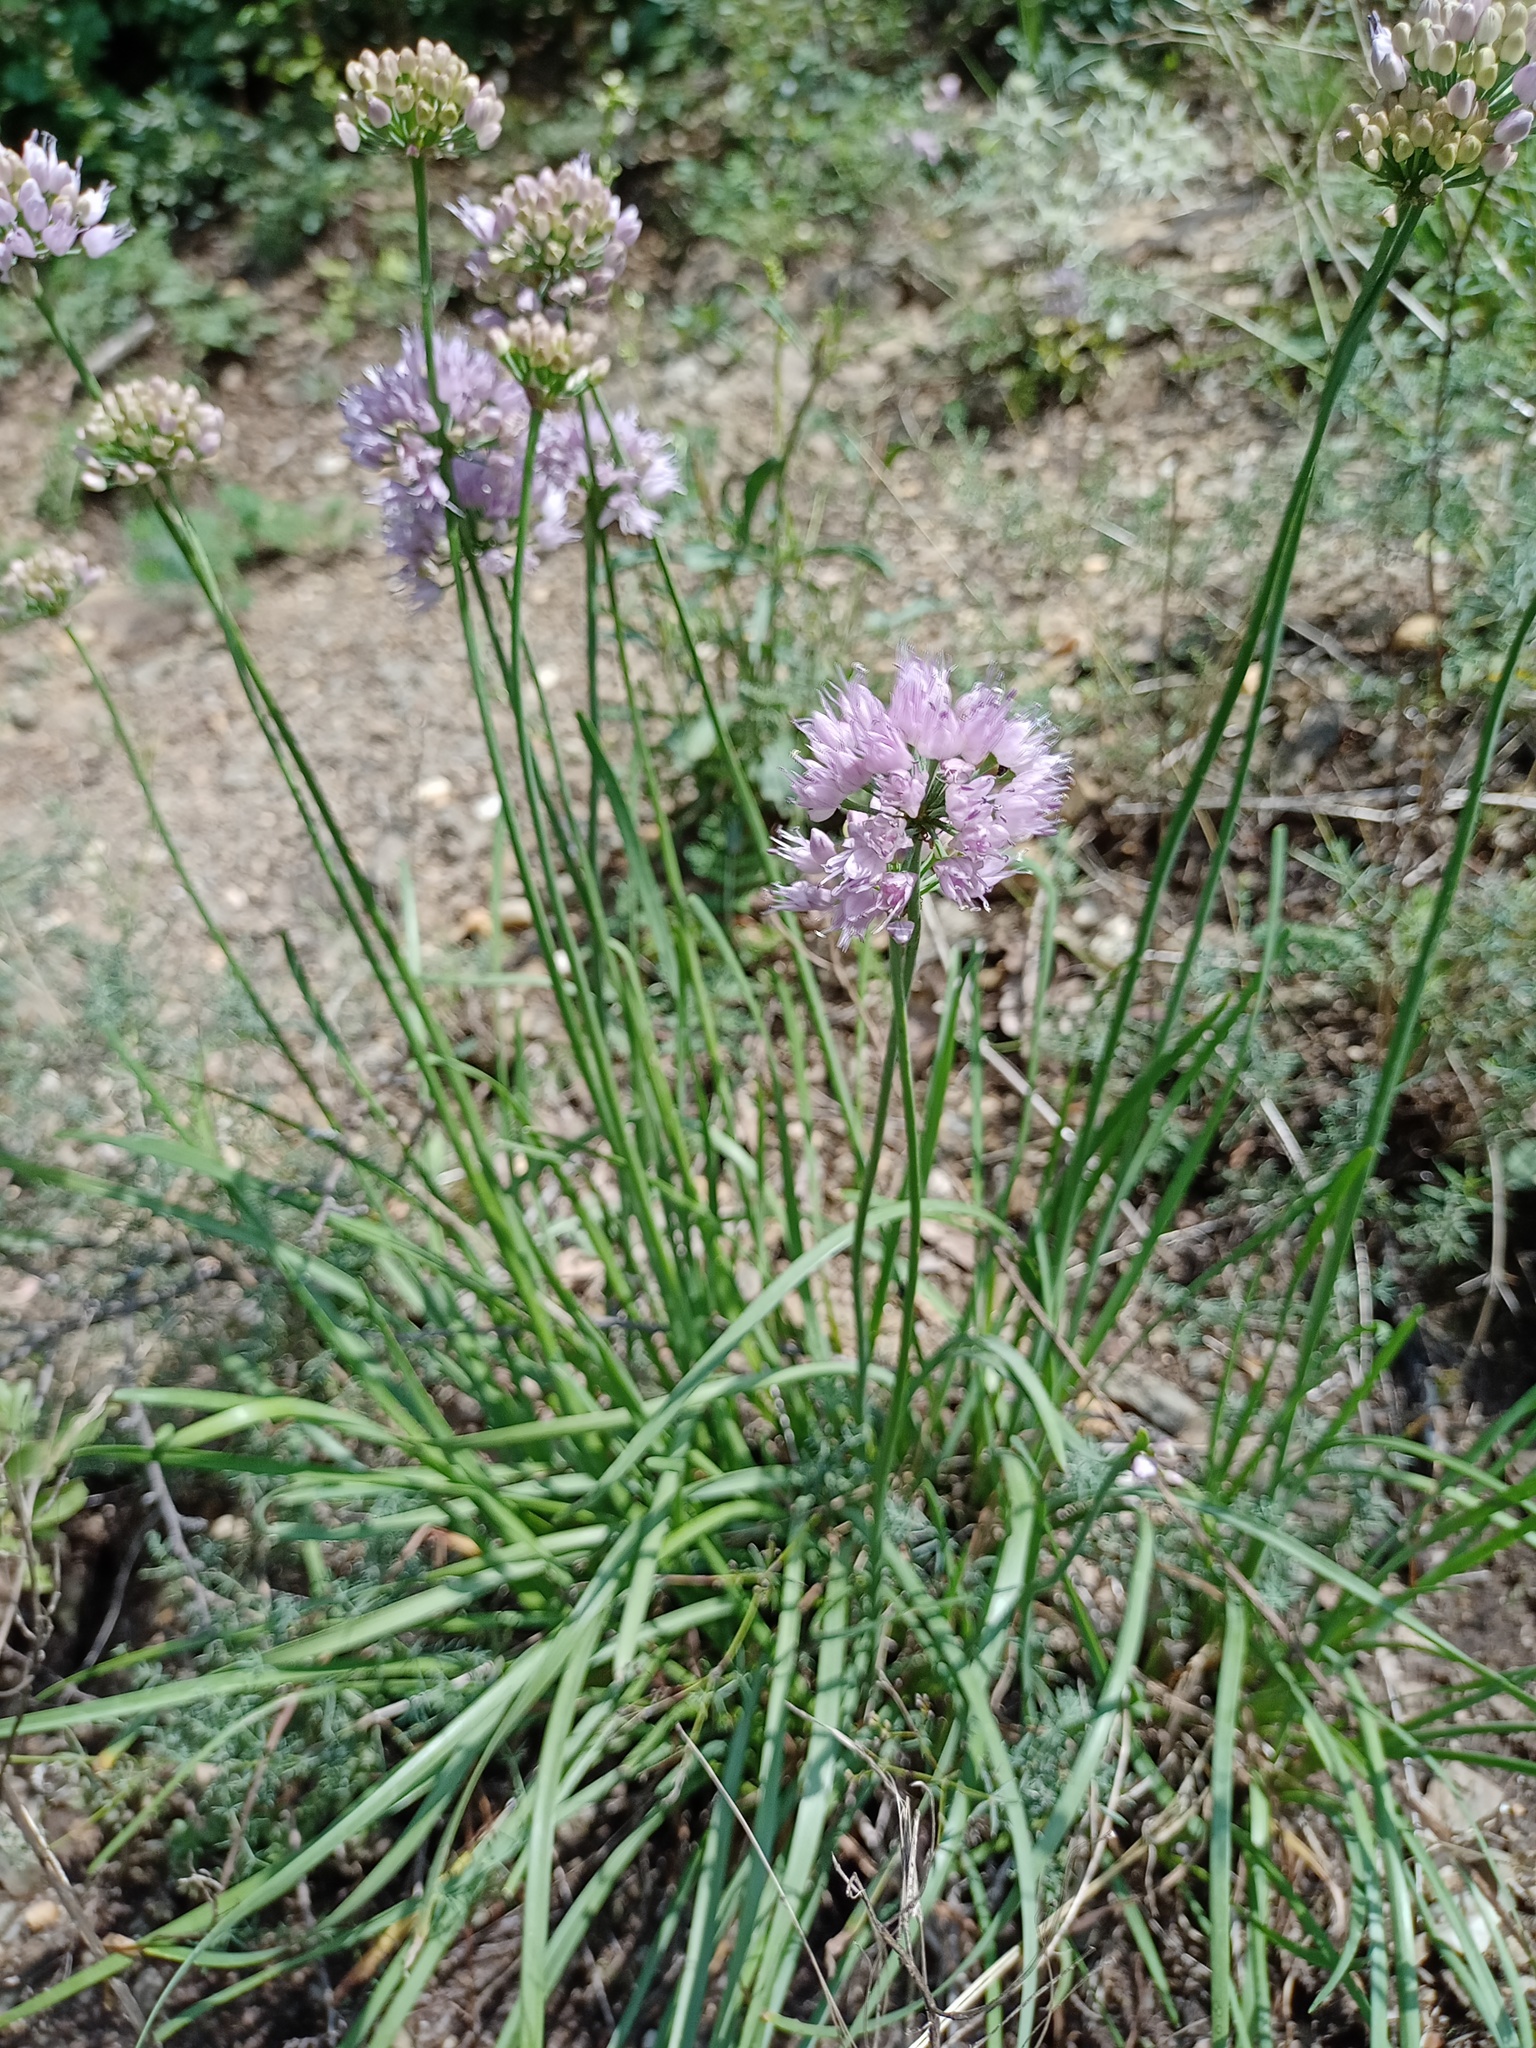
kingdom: Plantae
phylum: Tracheophyta
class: Liliopsida
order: Asparagales
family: Amaryllidaceae
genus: Allium
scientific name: Allium lusitanicum
